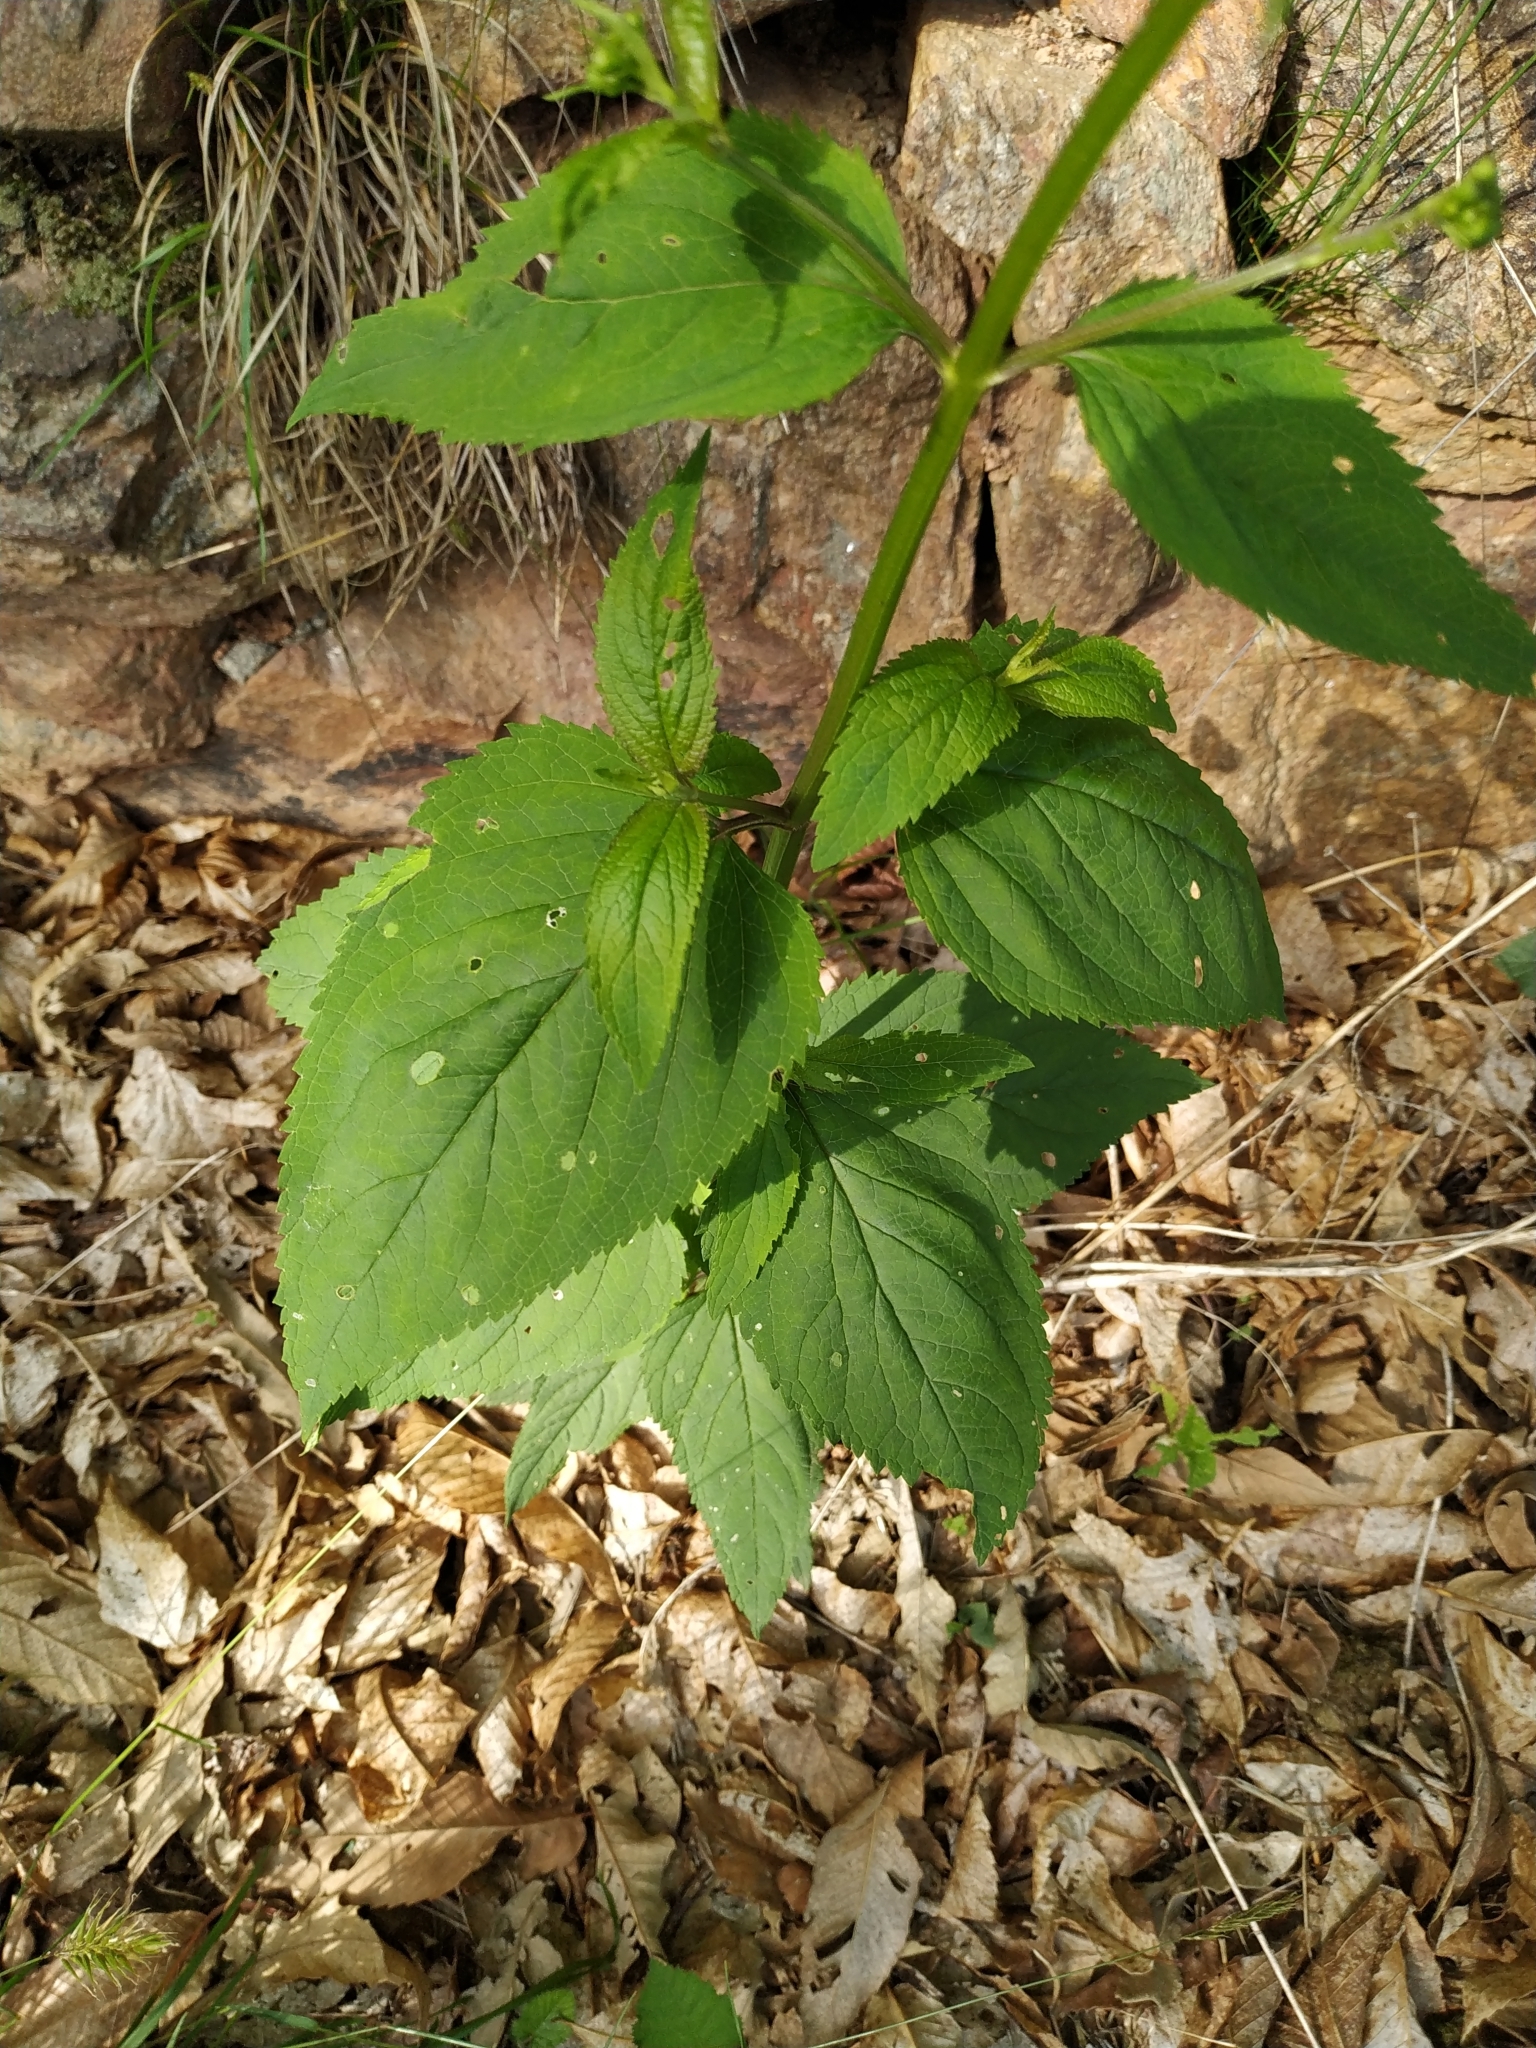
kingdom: Plantae
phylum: Tracheophyta
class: Magnoliopsida
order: Lamiales
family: Scrophulariaceae
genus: Scrophularia
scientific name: Scrophularia nodosa
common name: Common figwort
